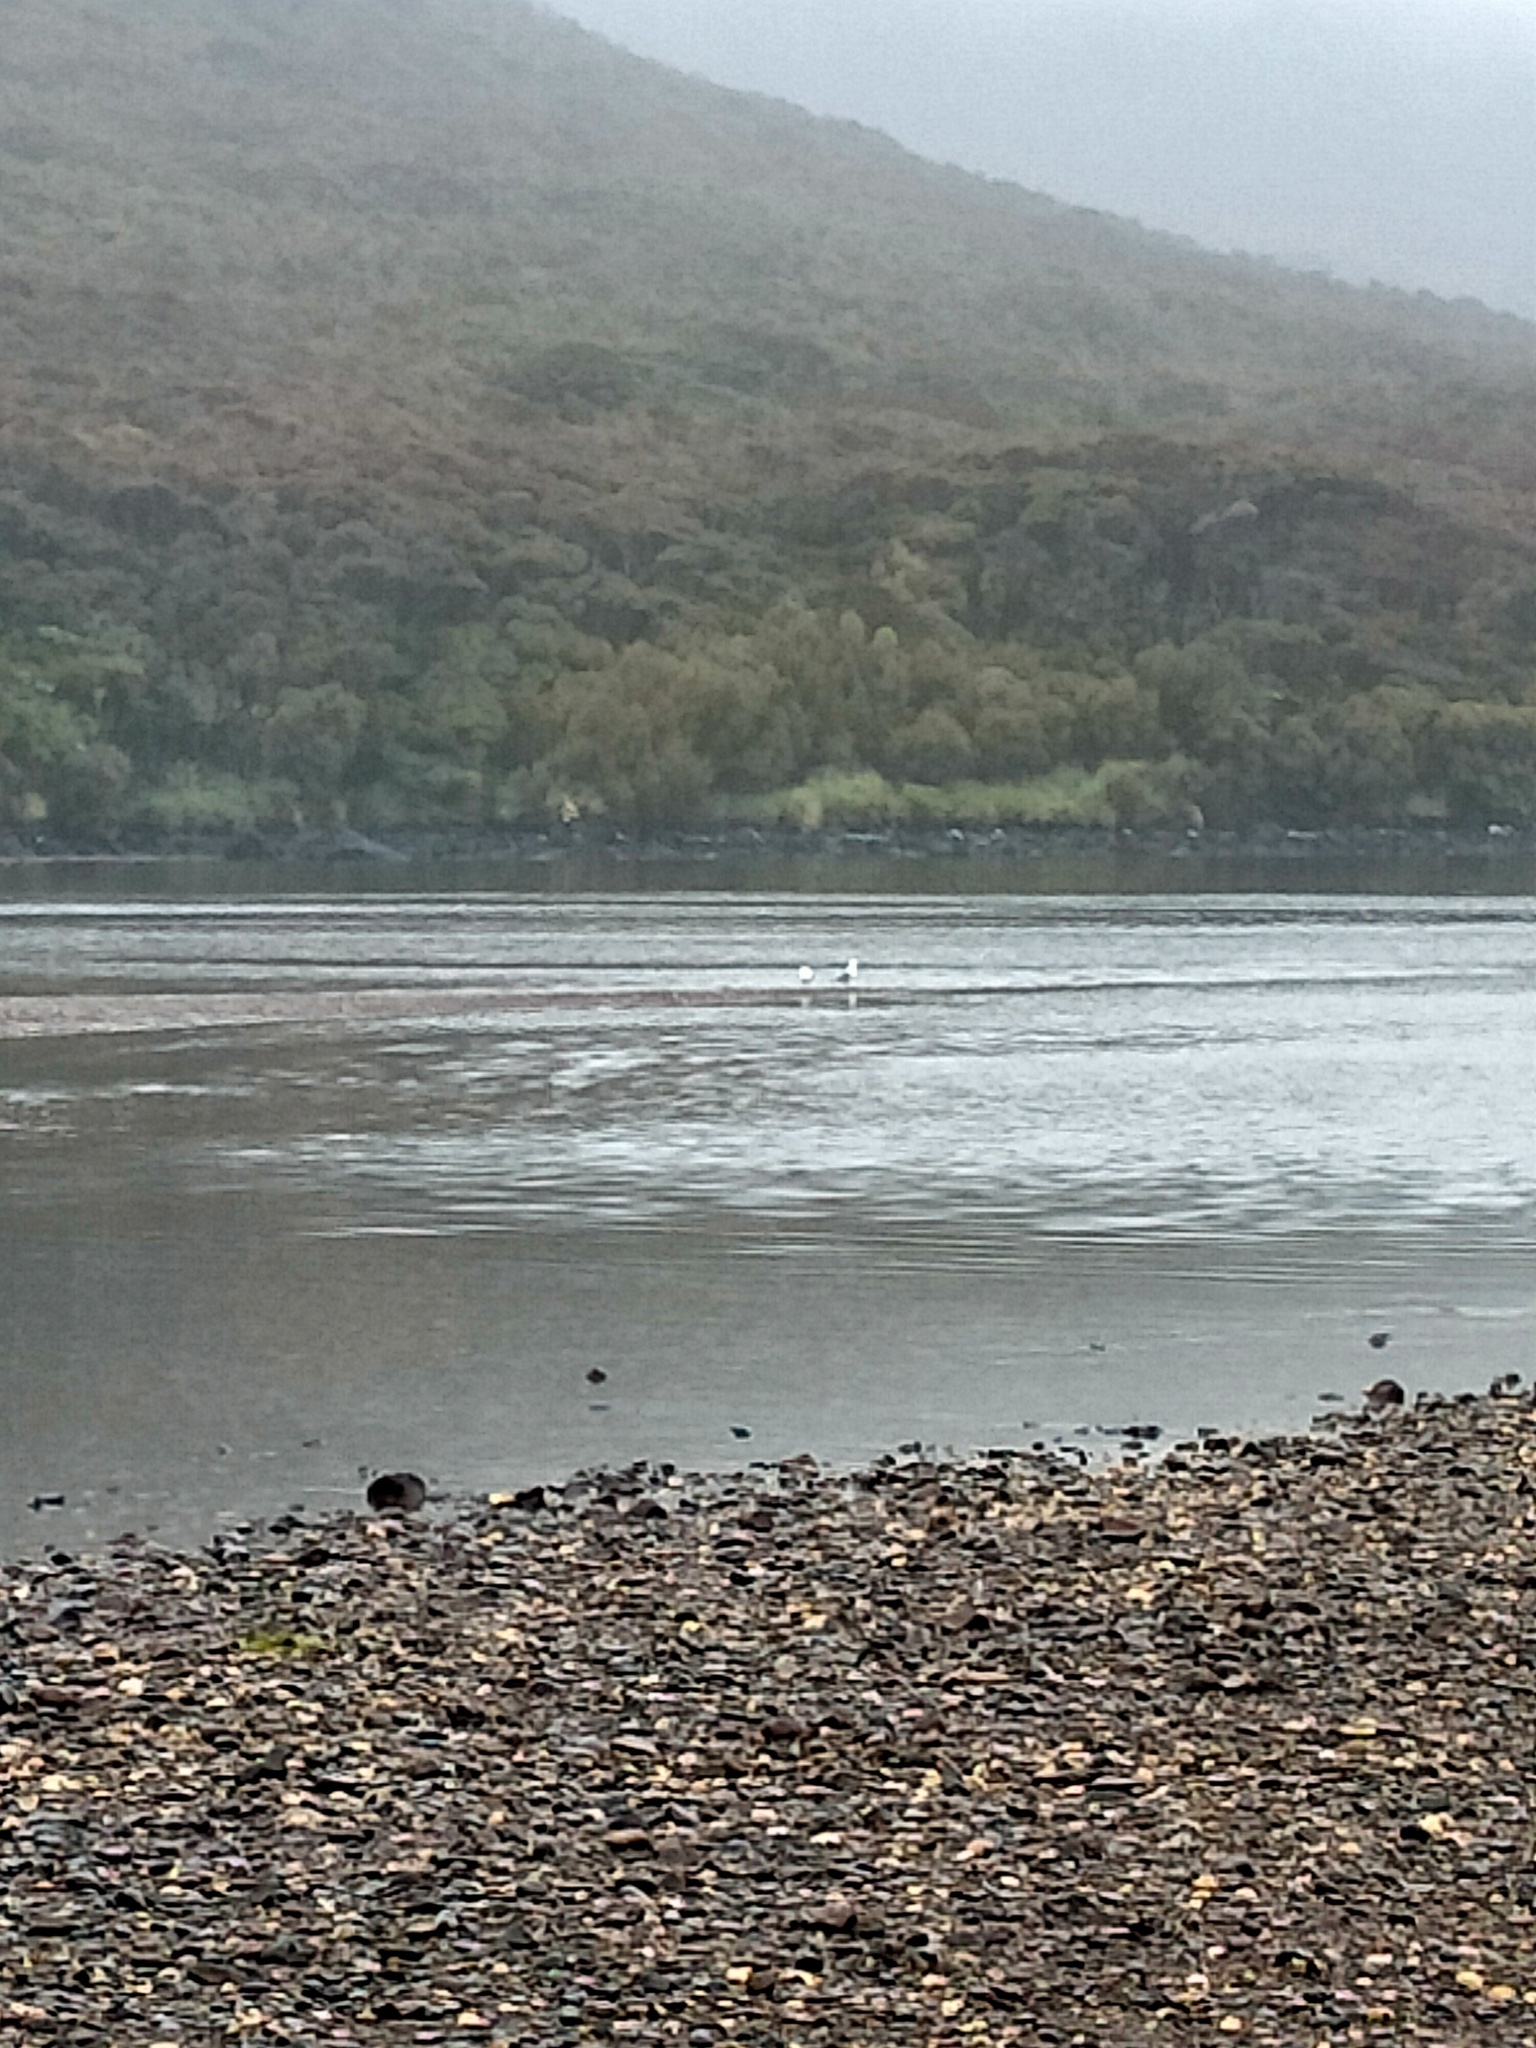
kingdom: Animalia
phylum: Chordata
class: Aves
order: Charadriiformes
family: Laridae
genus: Larus
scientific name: Larus dominicanus
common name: Kelp gull
